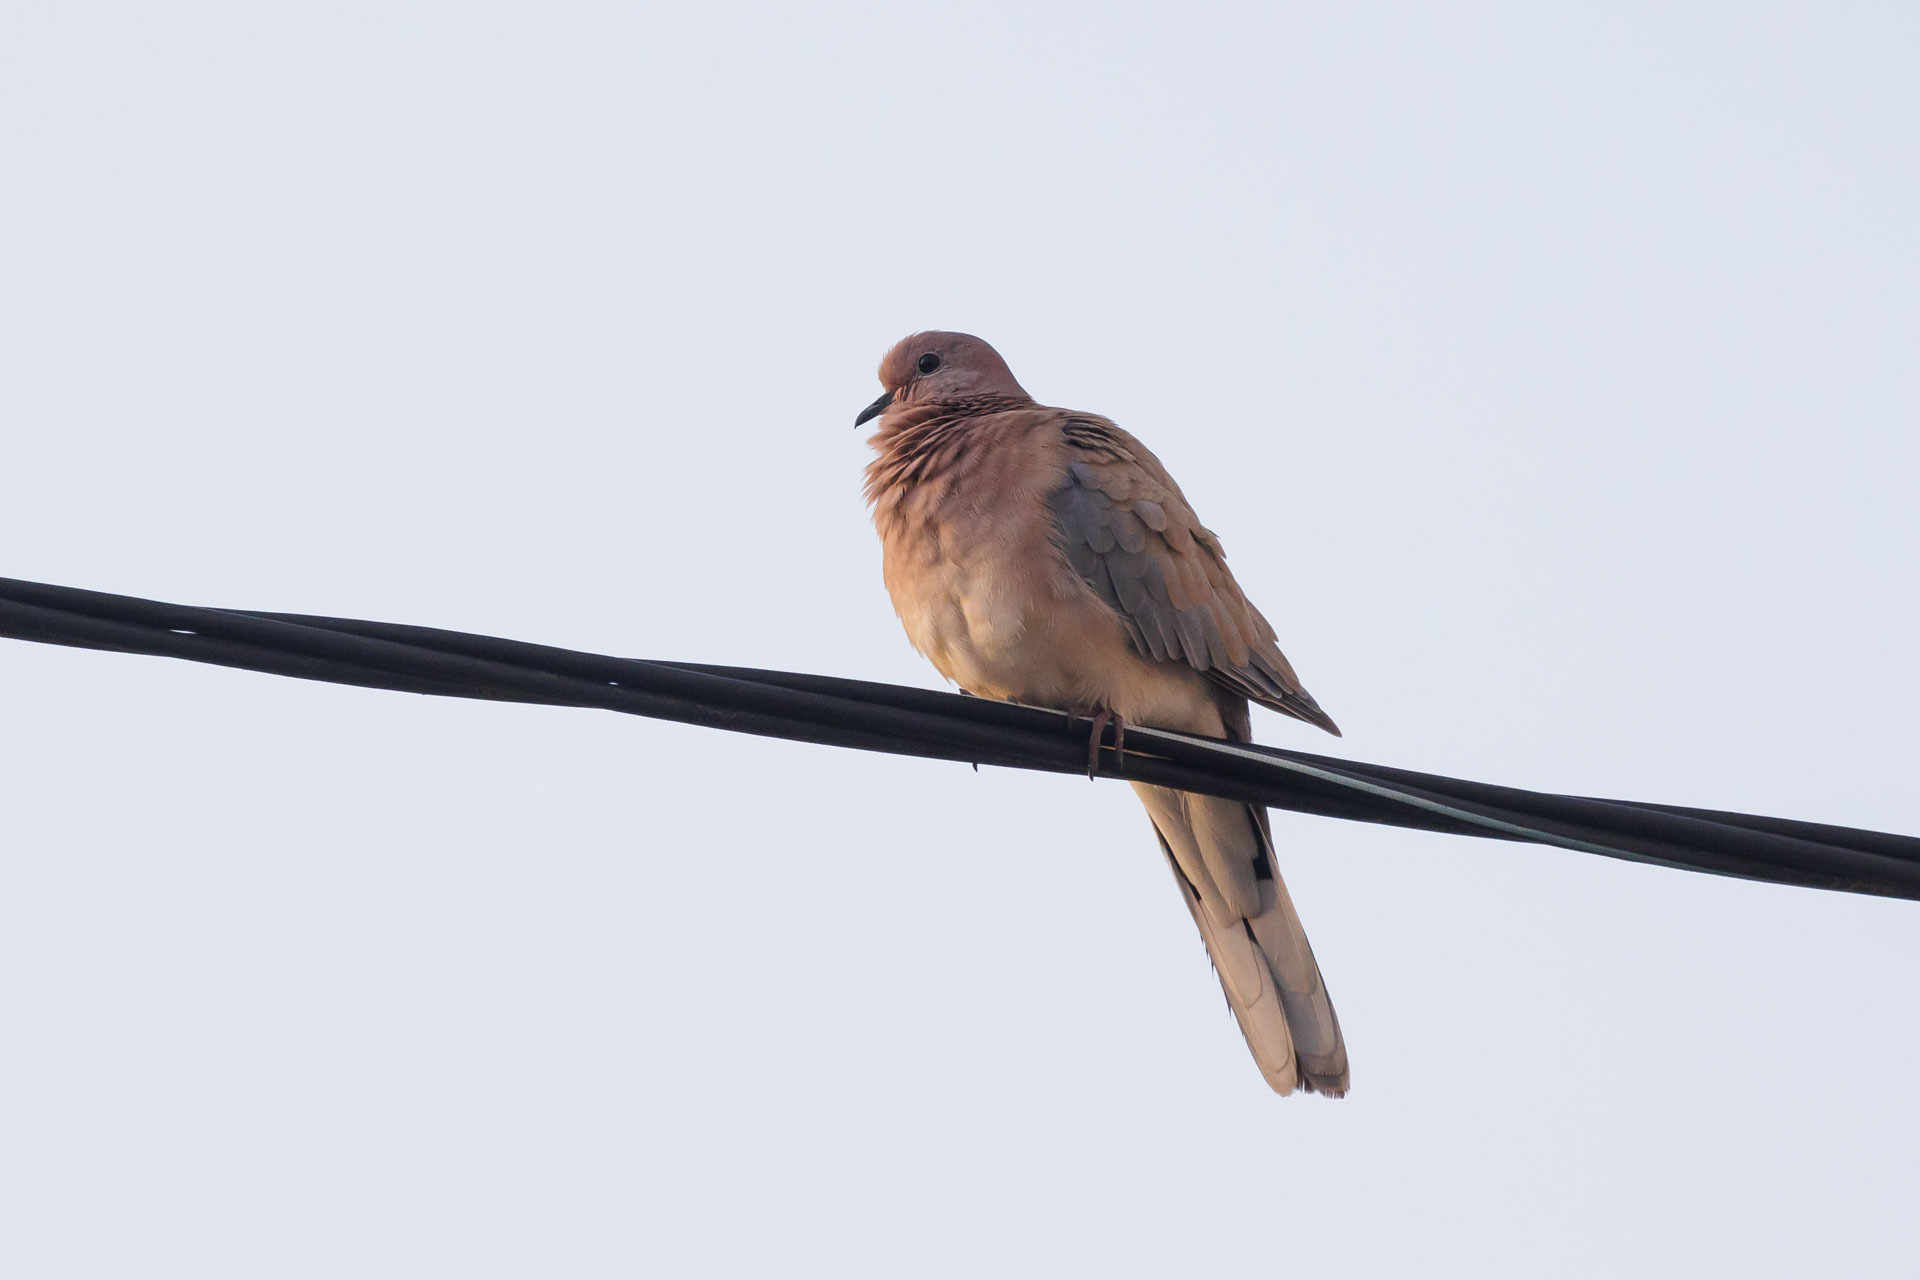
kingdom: Animalia
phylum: Chordata
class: Aves
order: Columbiformes
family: Columbidae
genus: Spilopelia
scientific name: Spilopelia senegalensis
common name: Laughing dove
